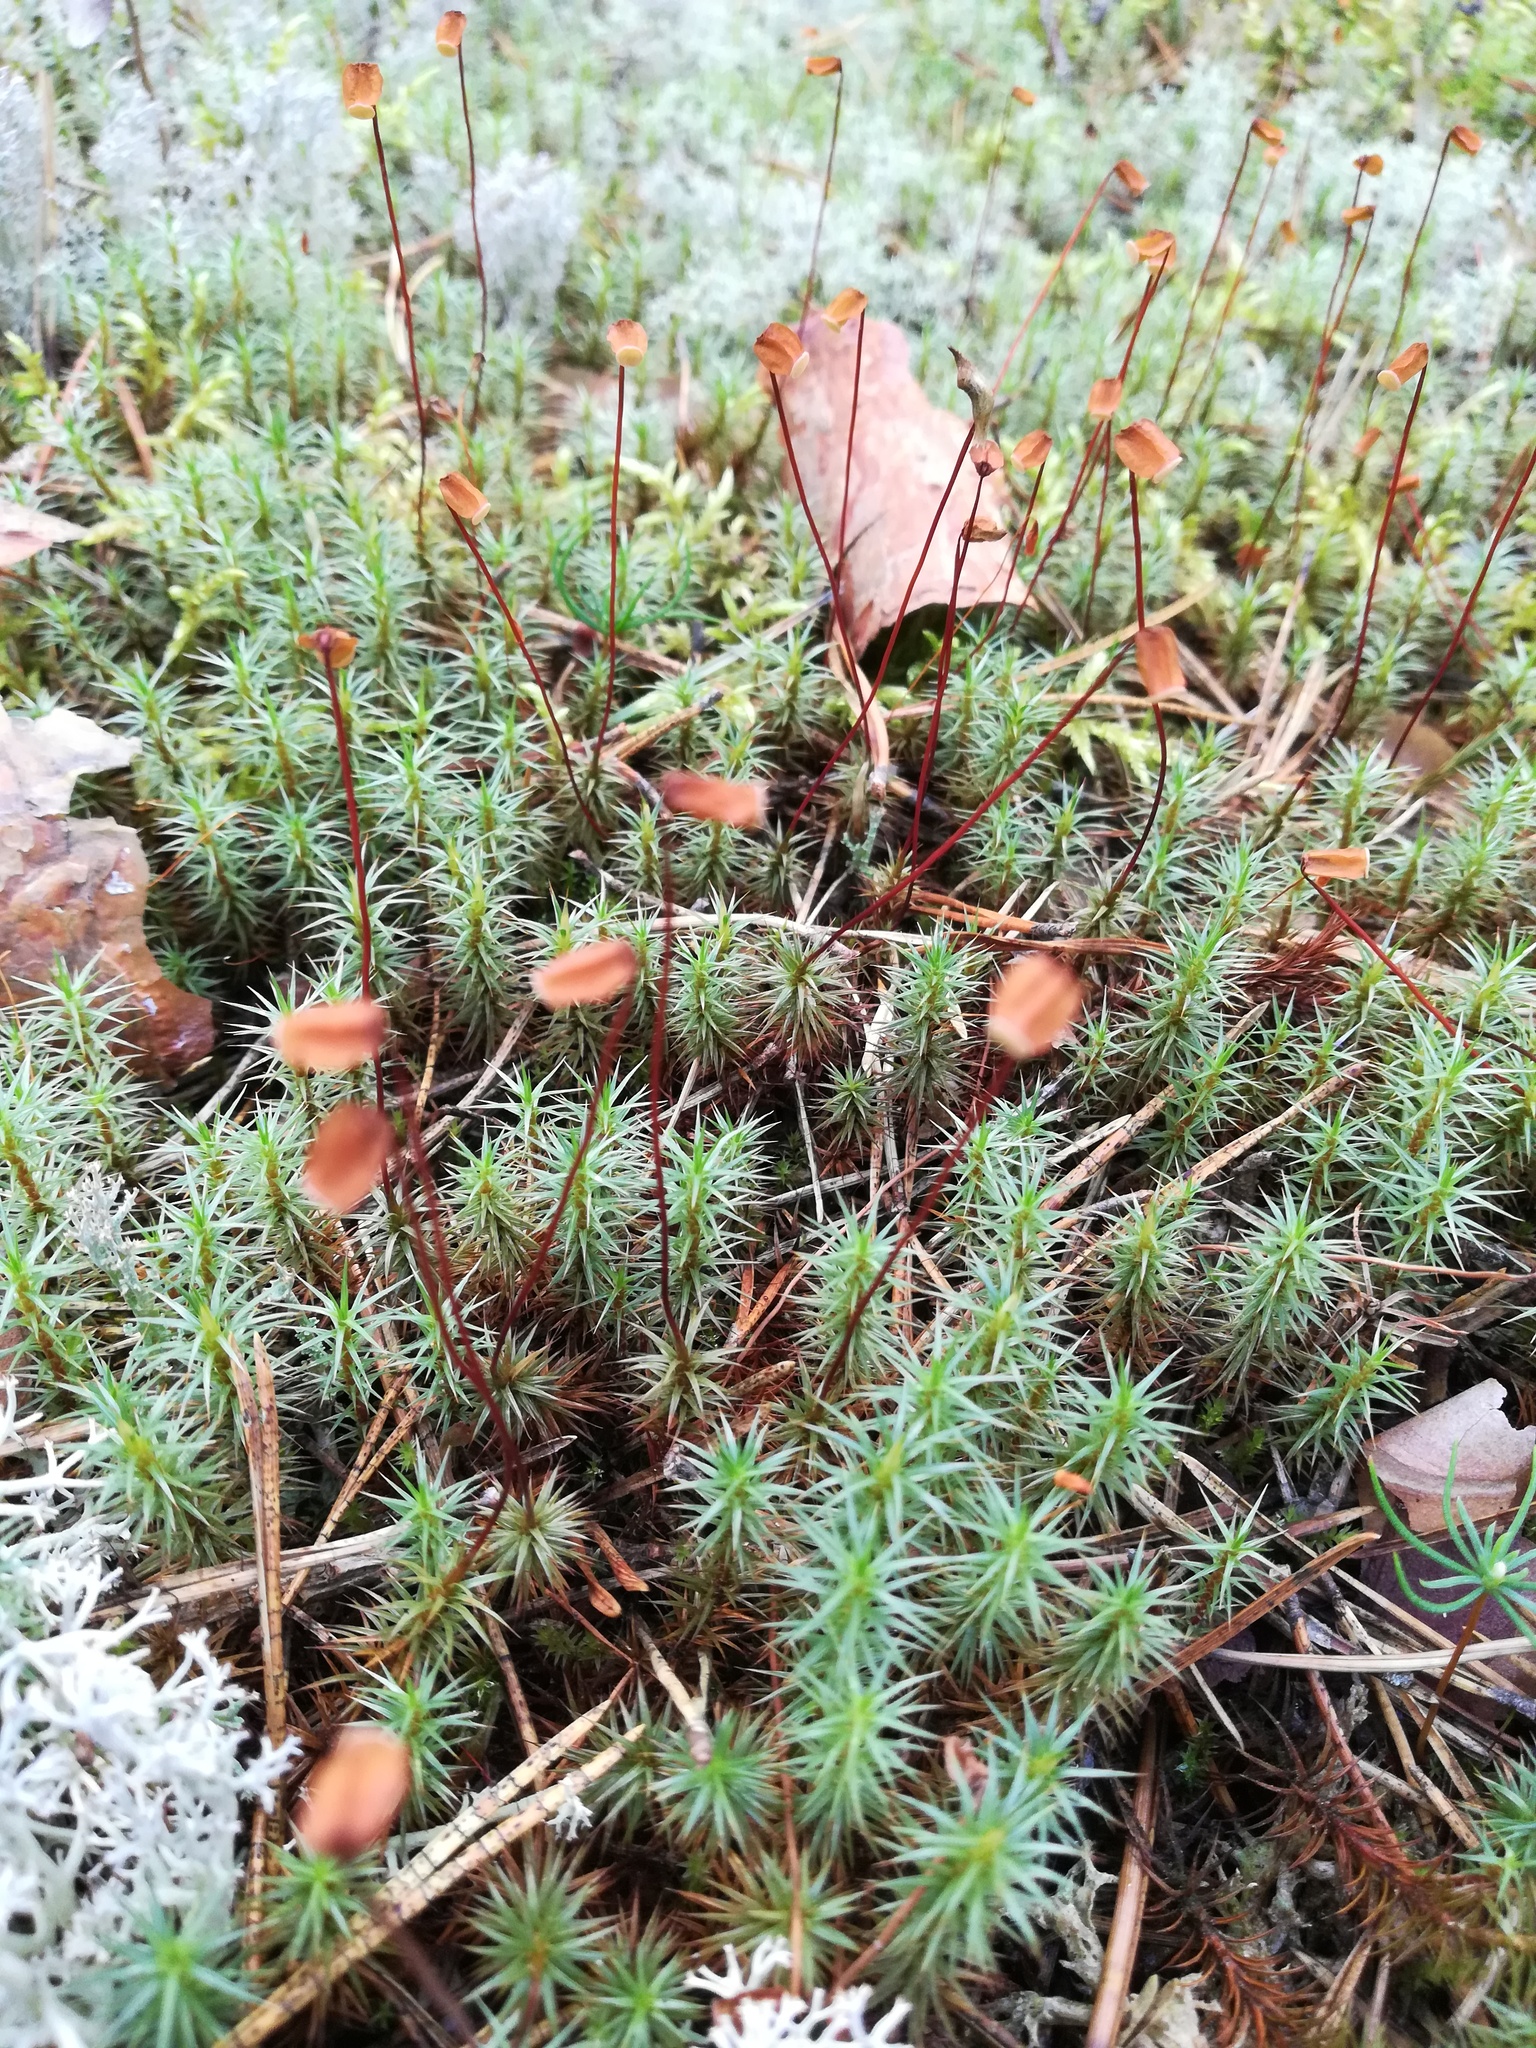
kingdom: Plantae
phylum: Bryophyta
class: Polytrichopsida
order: Polytrichales
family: Polytrichaceae
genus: Polytrichum
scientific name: Polytrichum commune
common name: Common haircap
